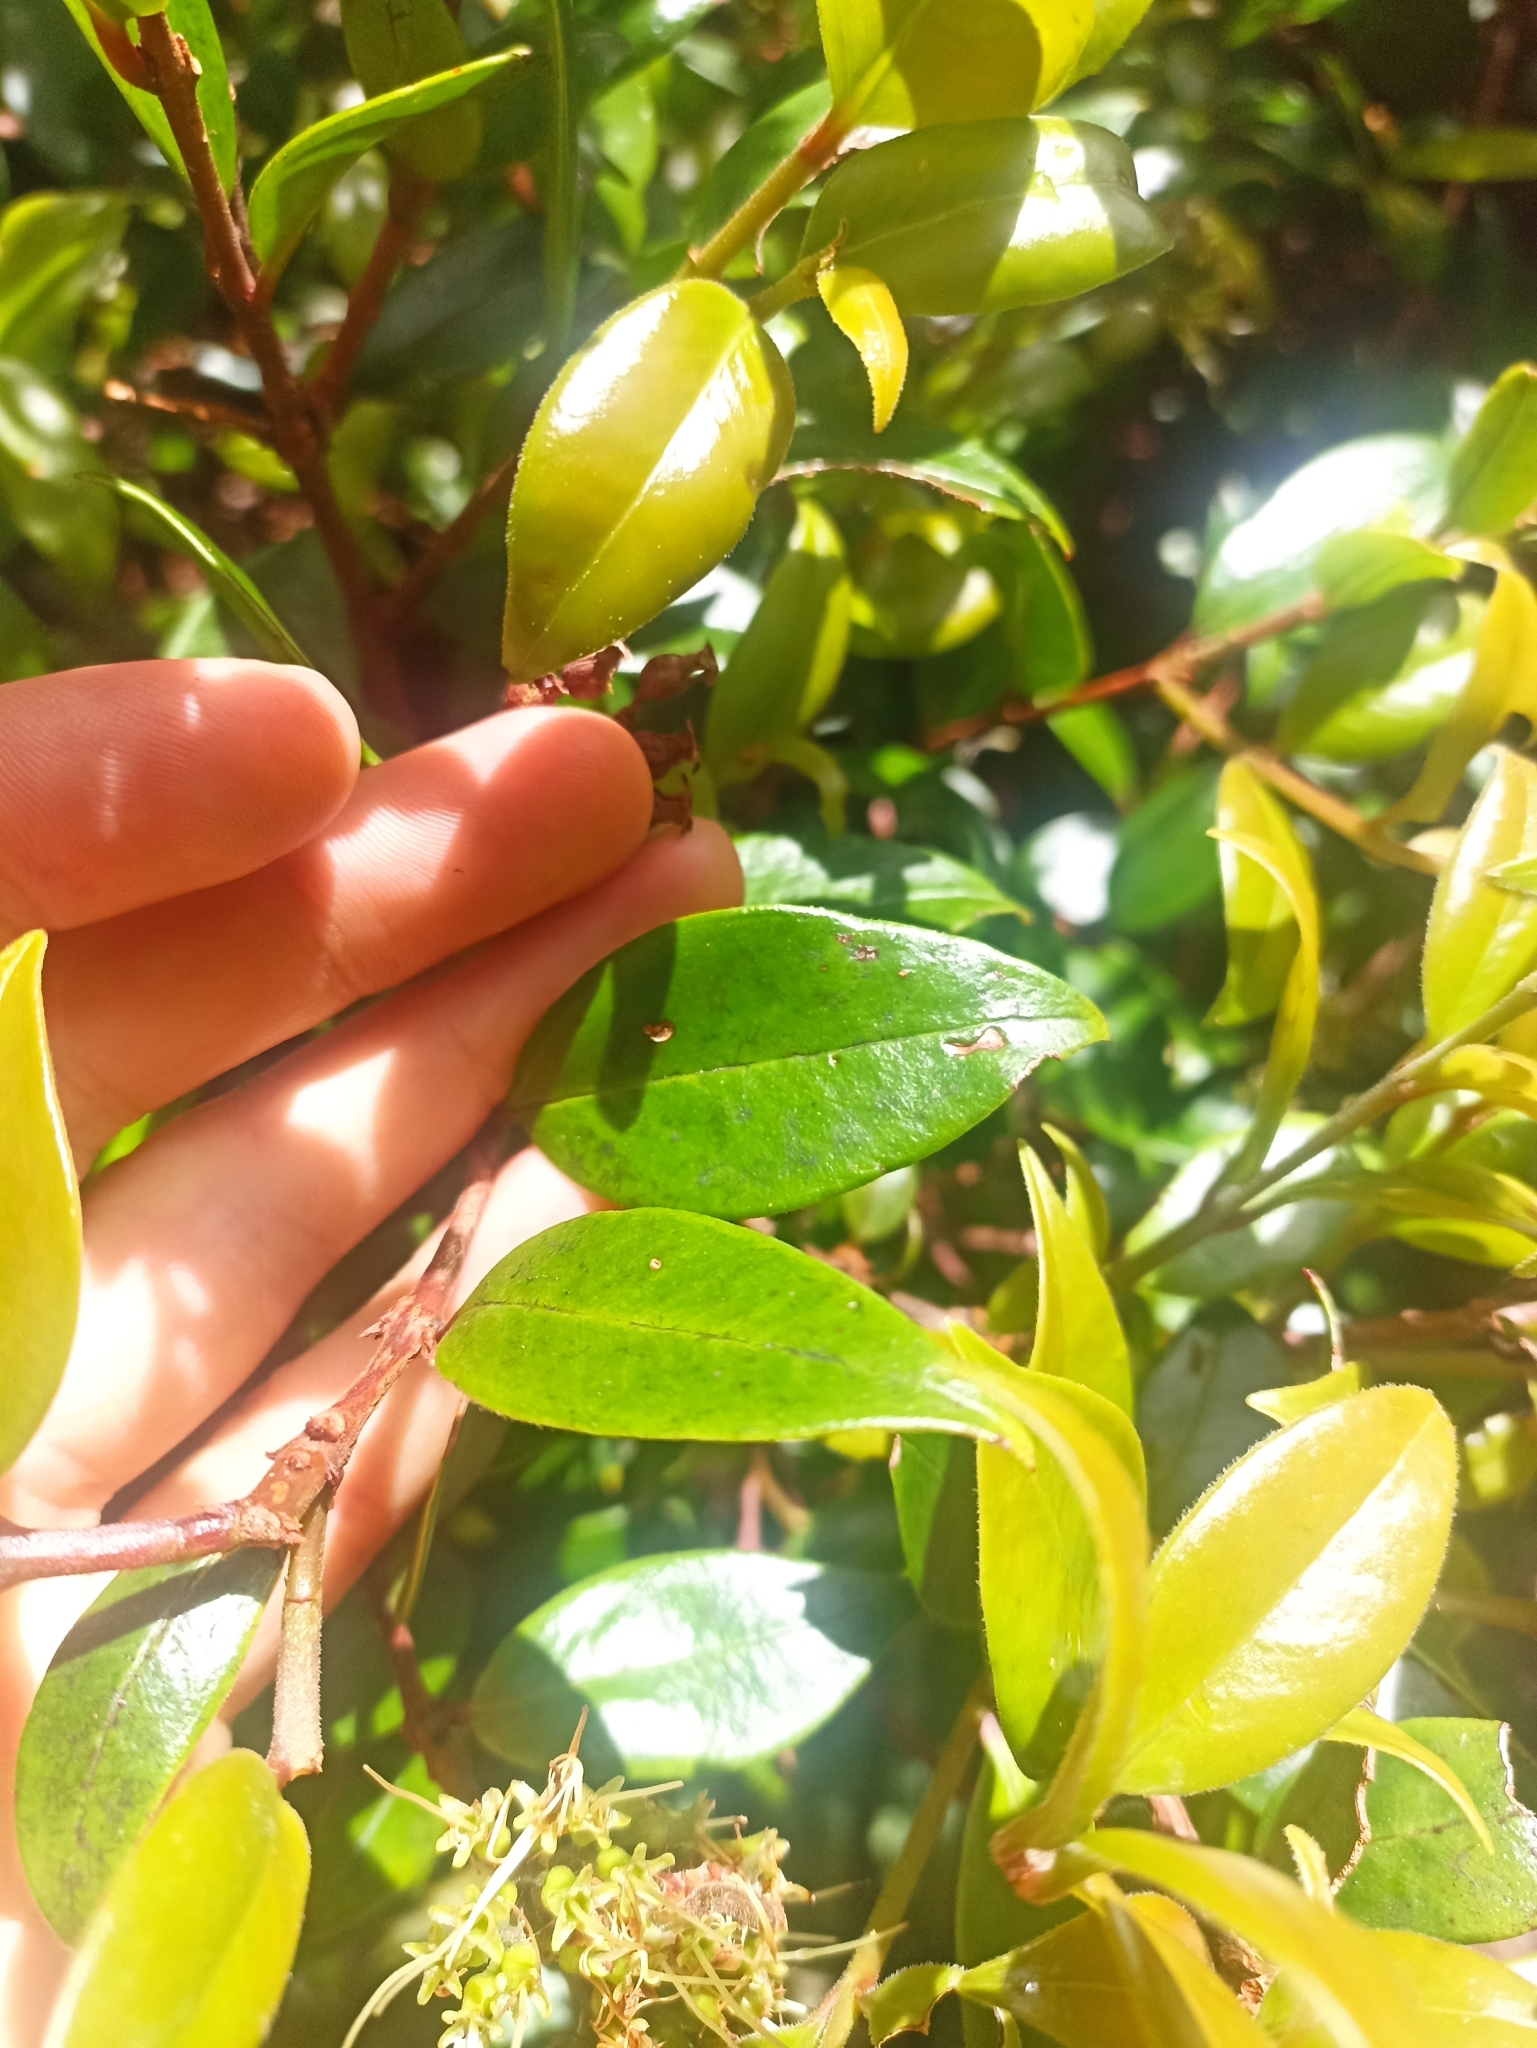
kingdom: Plantae
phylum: Tracheophyta
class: Magnoliopsida
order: Myrtales
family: Myrtaceae
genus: Metrosideros
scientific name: Metrosideros albiflora
